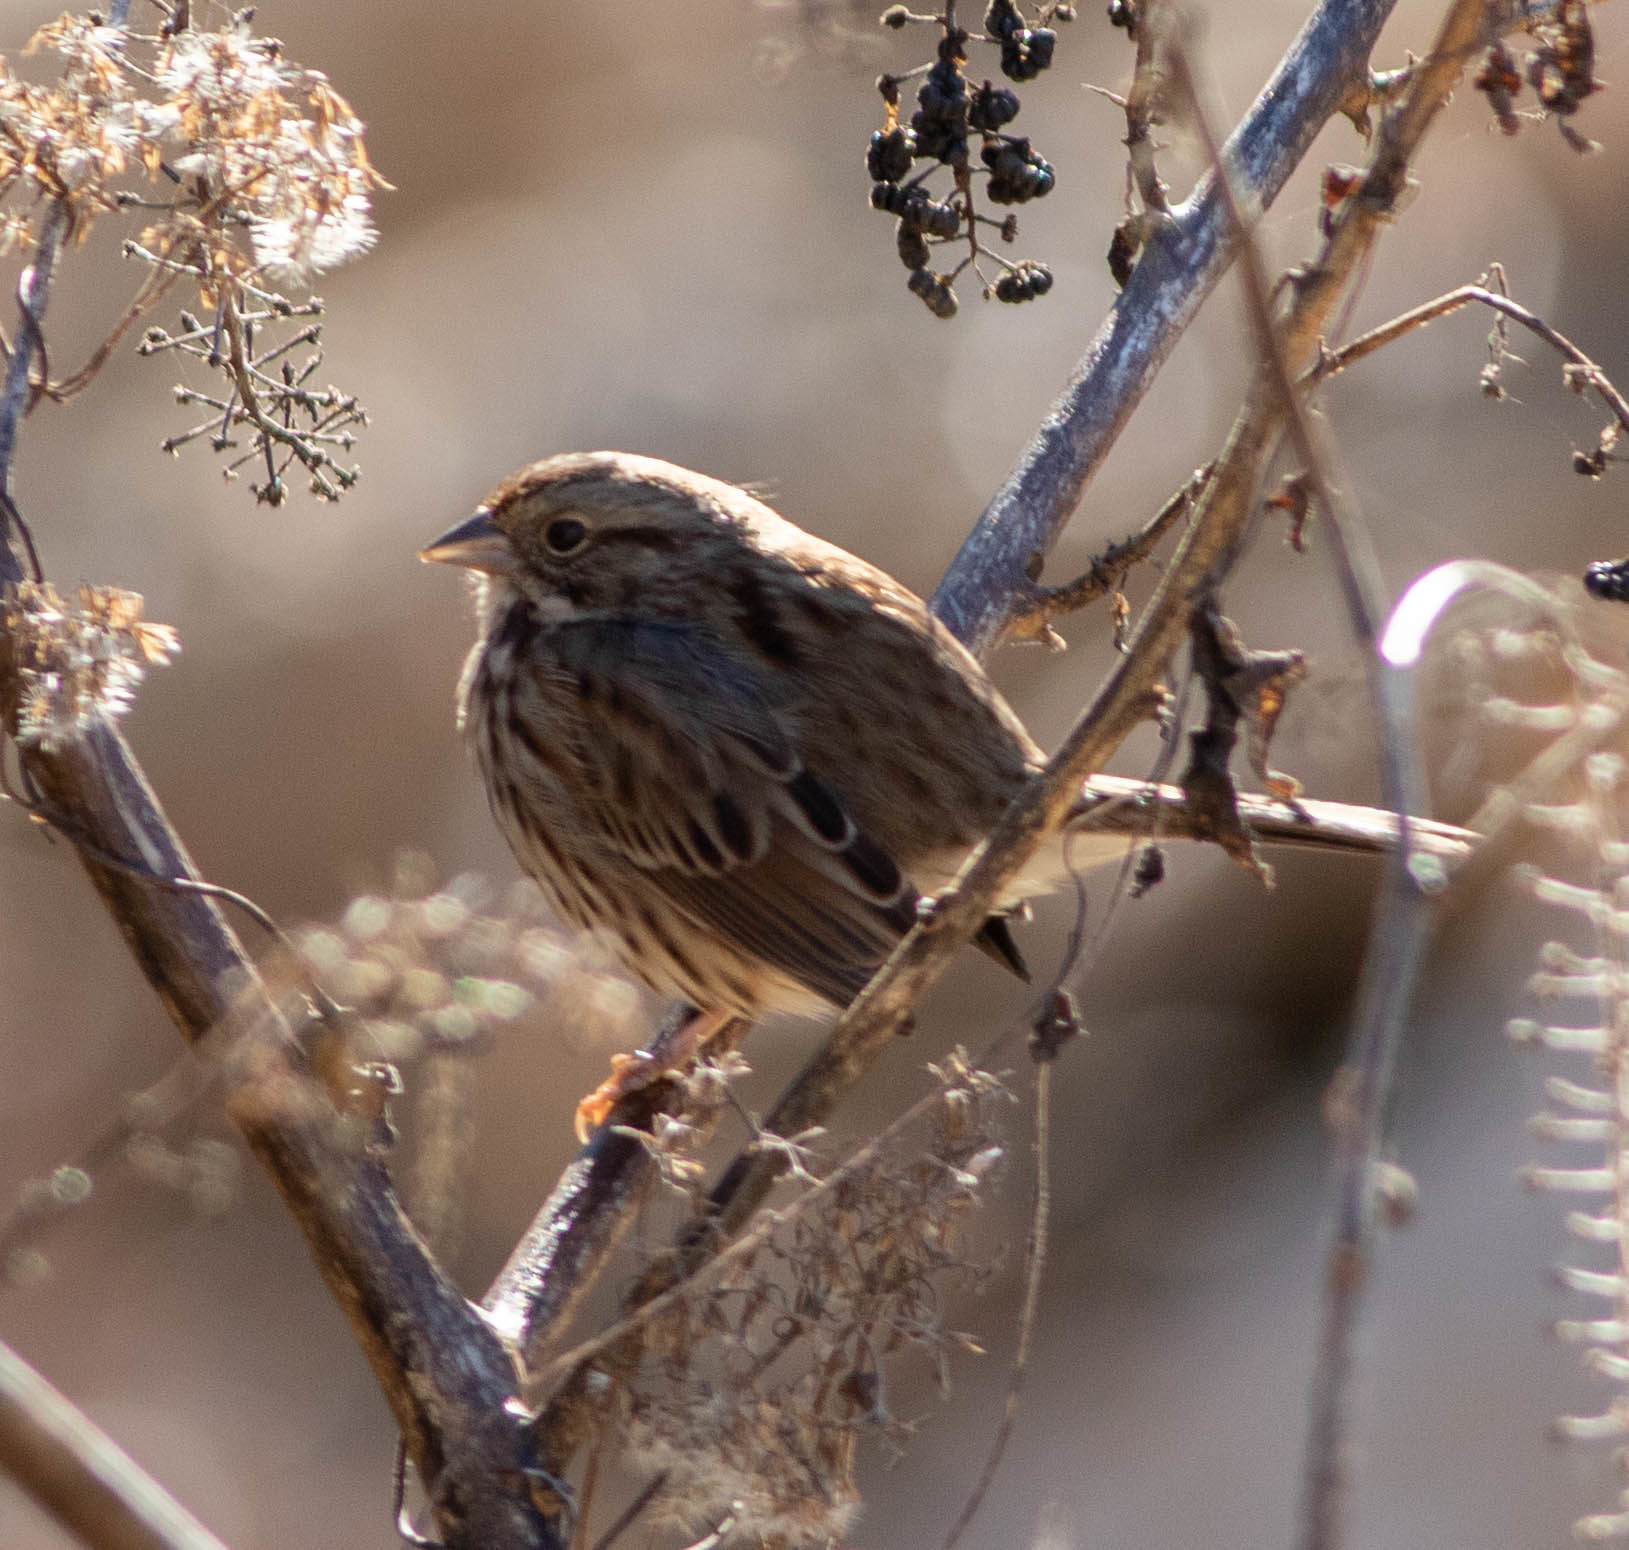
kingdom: Animalia
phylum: Chordata
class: Aves
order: Passeriformes
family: Passerellidae
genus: Melospiza
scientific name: Melospiza melodia
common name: Song sparrow
